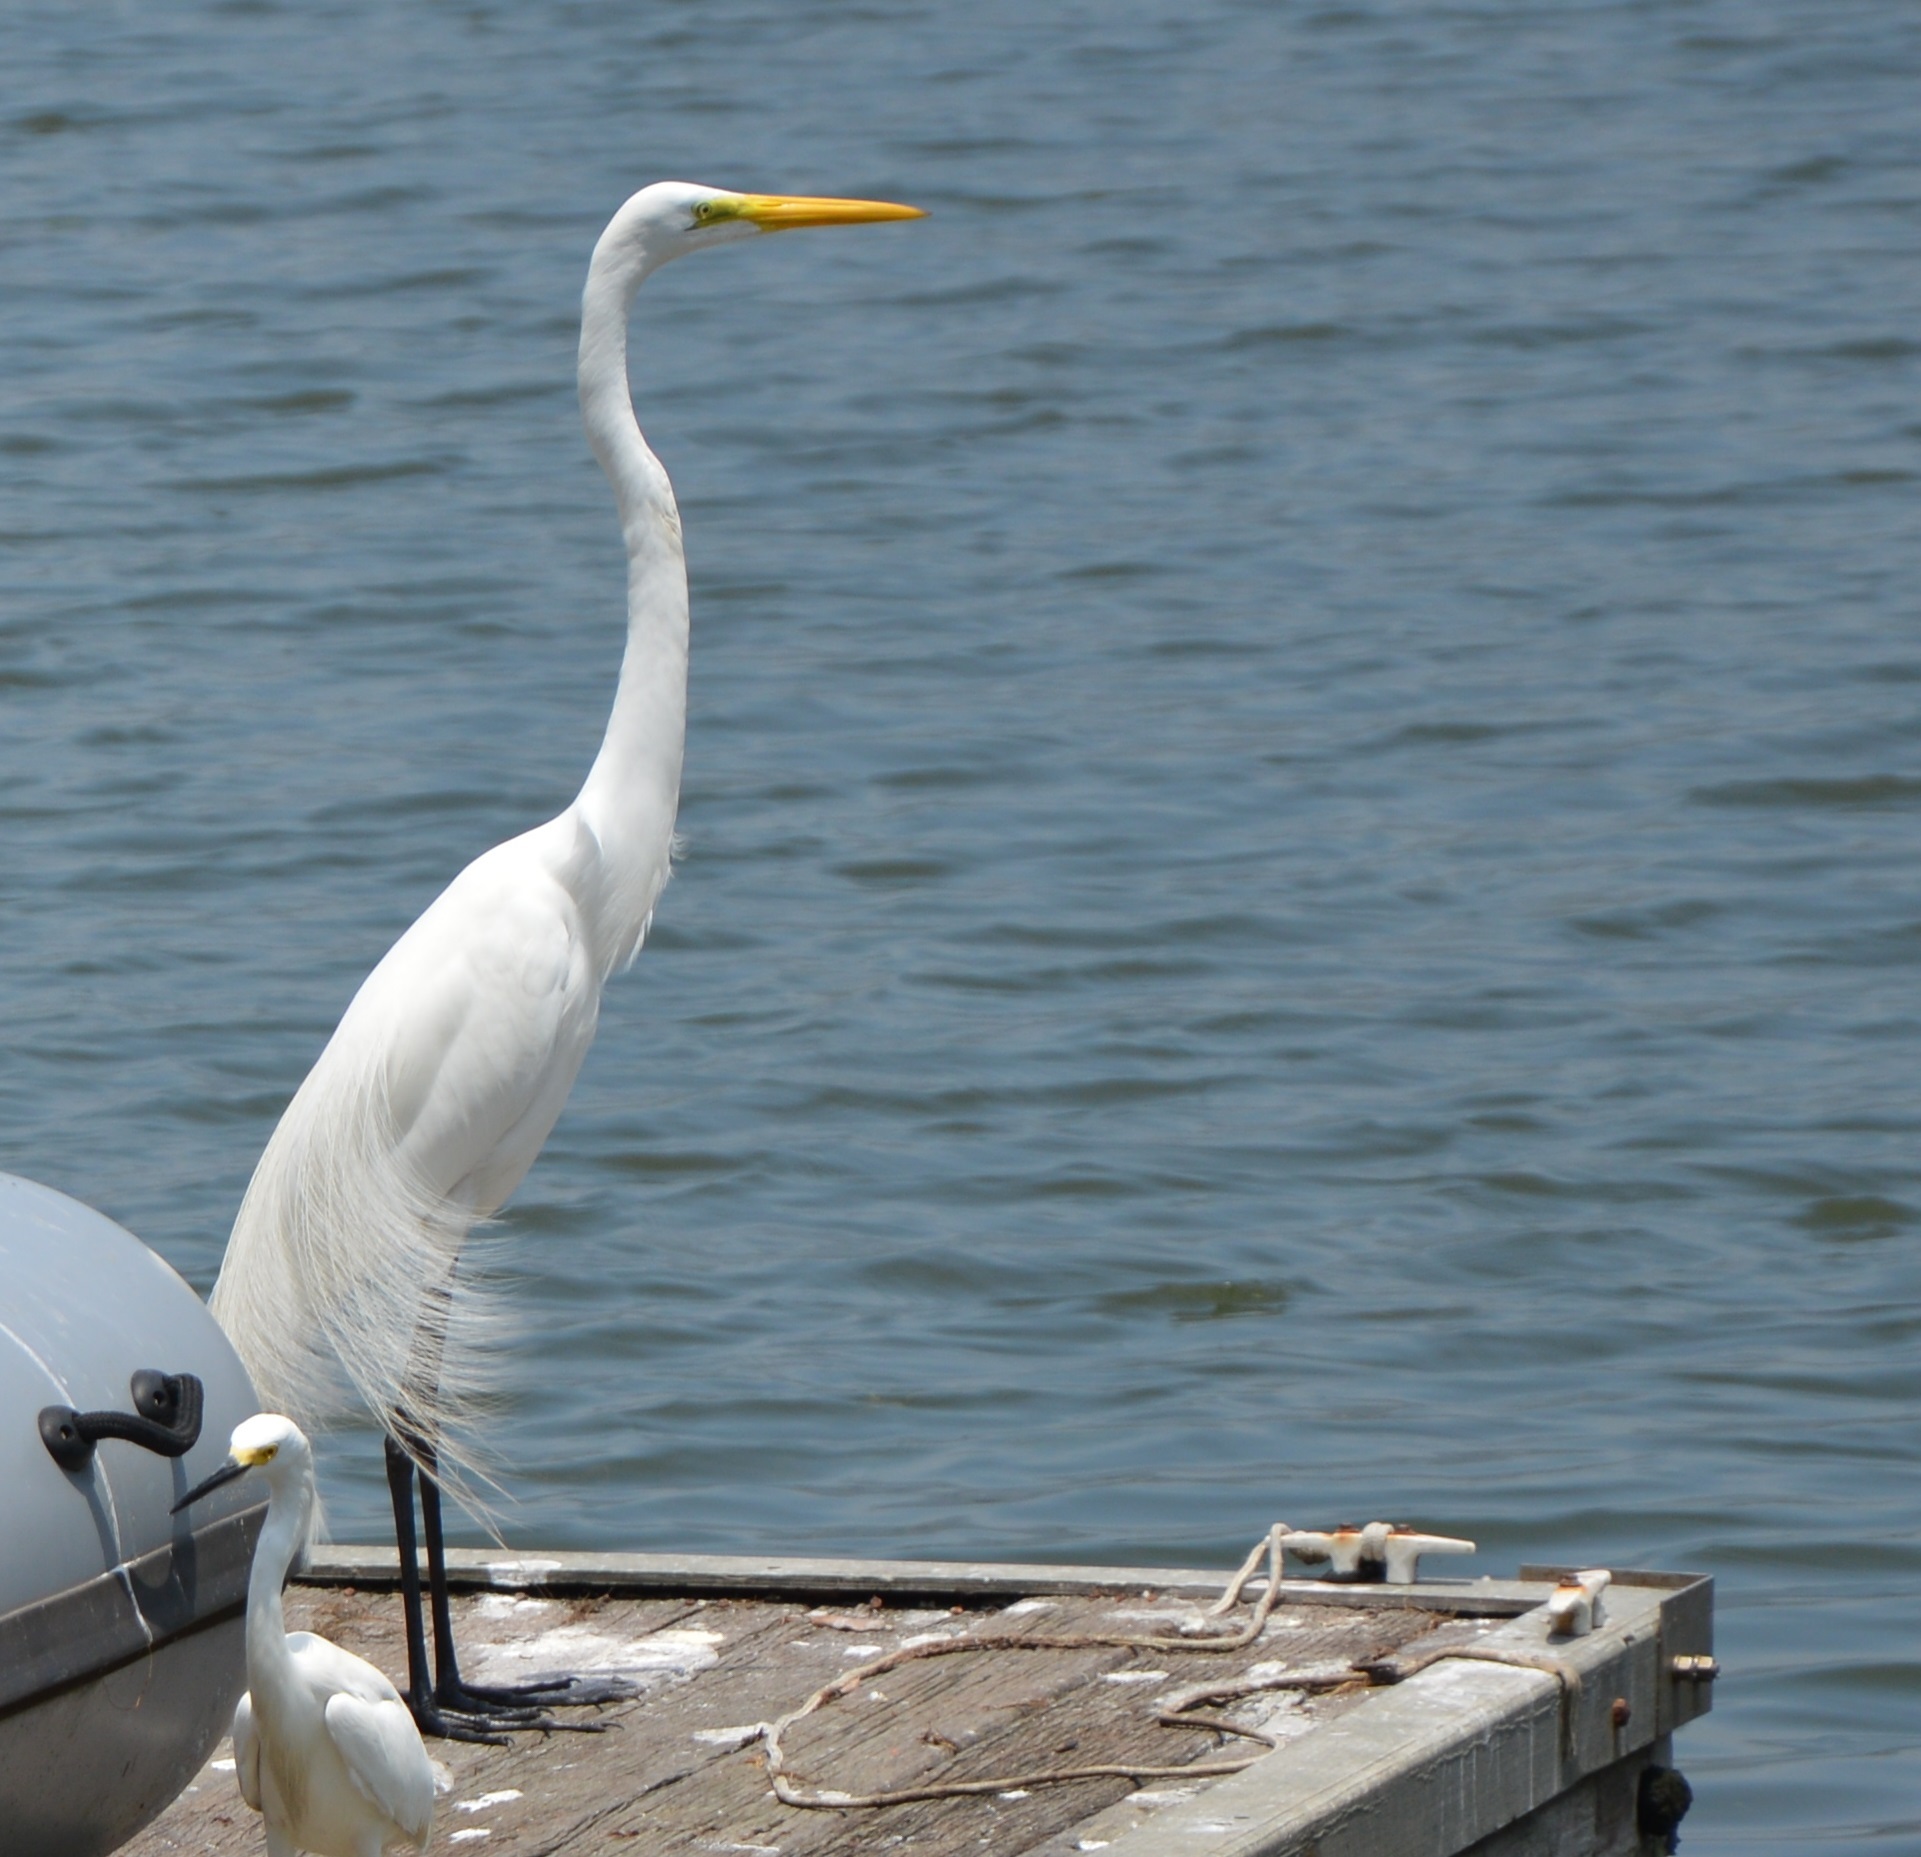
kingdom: Animalia
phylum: Chordata
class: Aves
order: Pelecaniformes
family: Ardeidae
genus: Ardea
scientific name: Ardea alba
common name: Great egret
